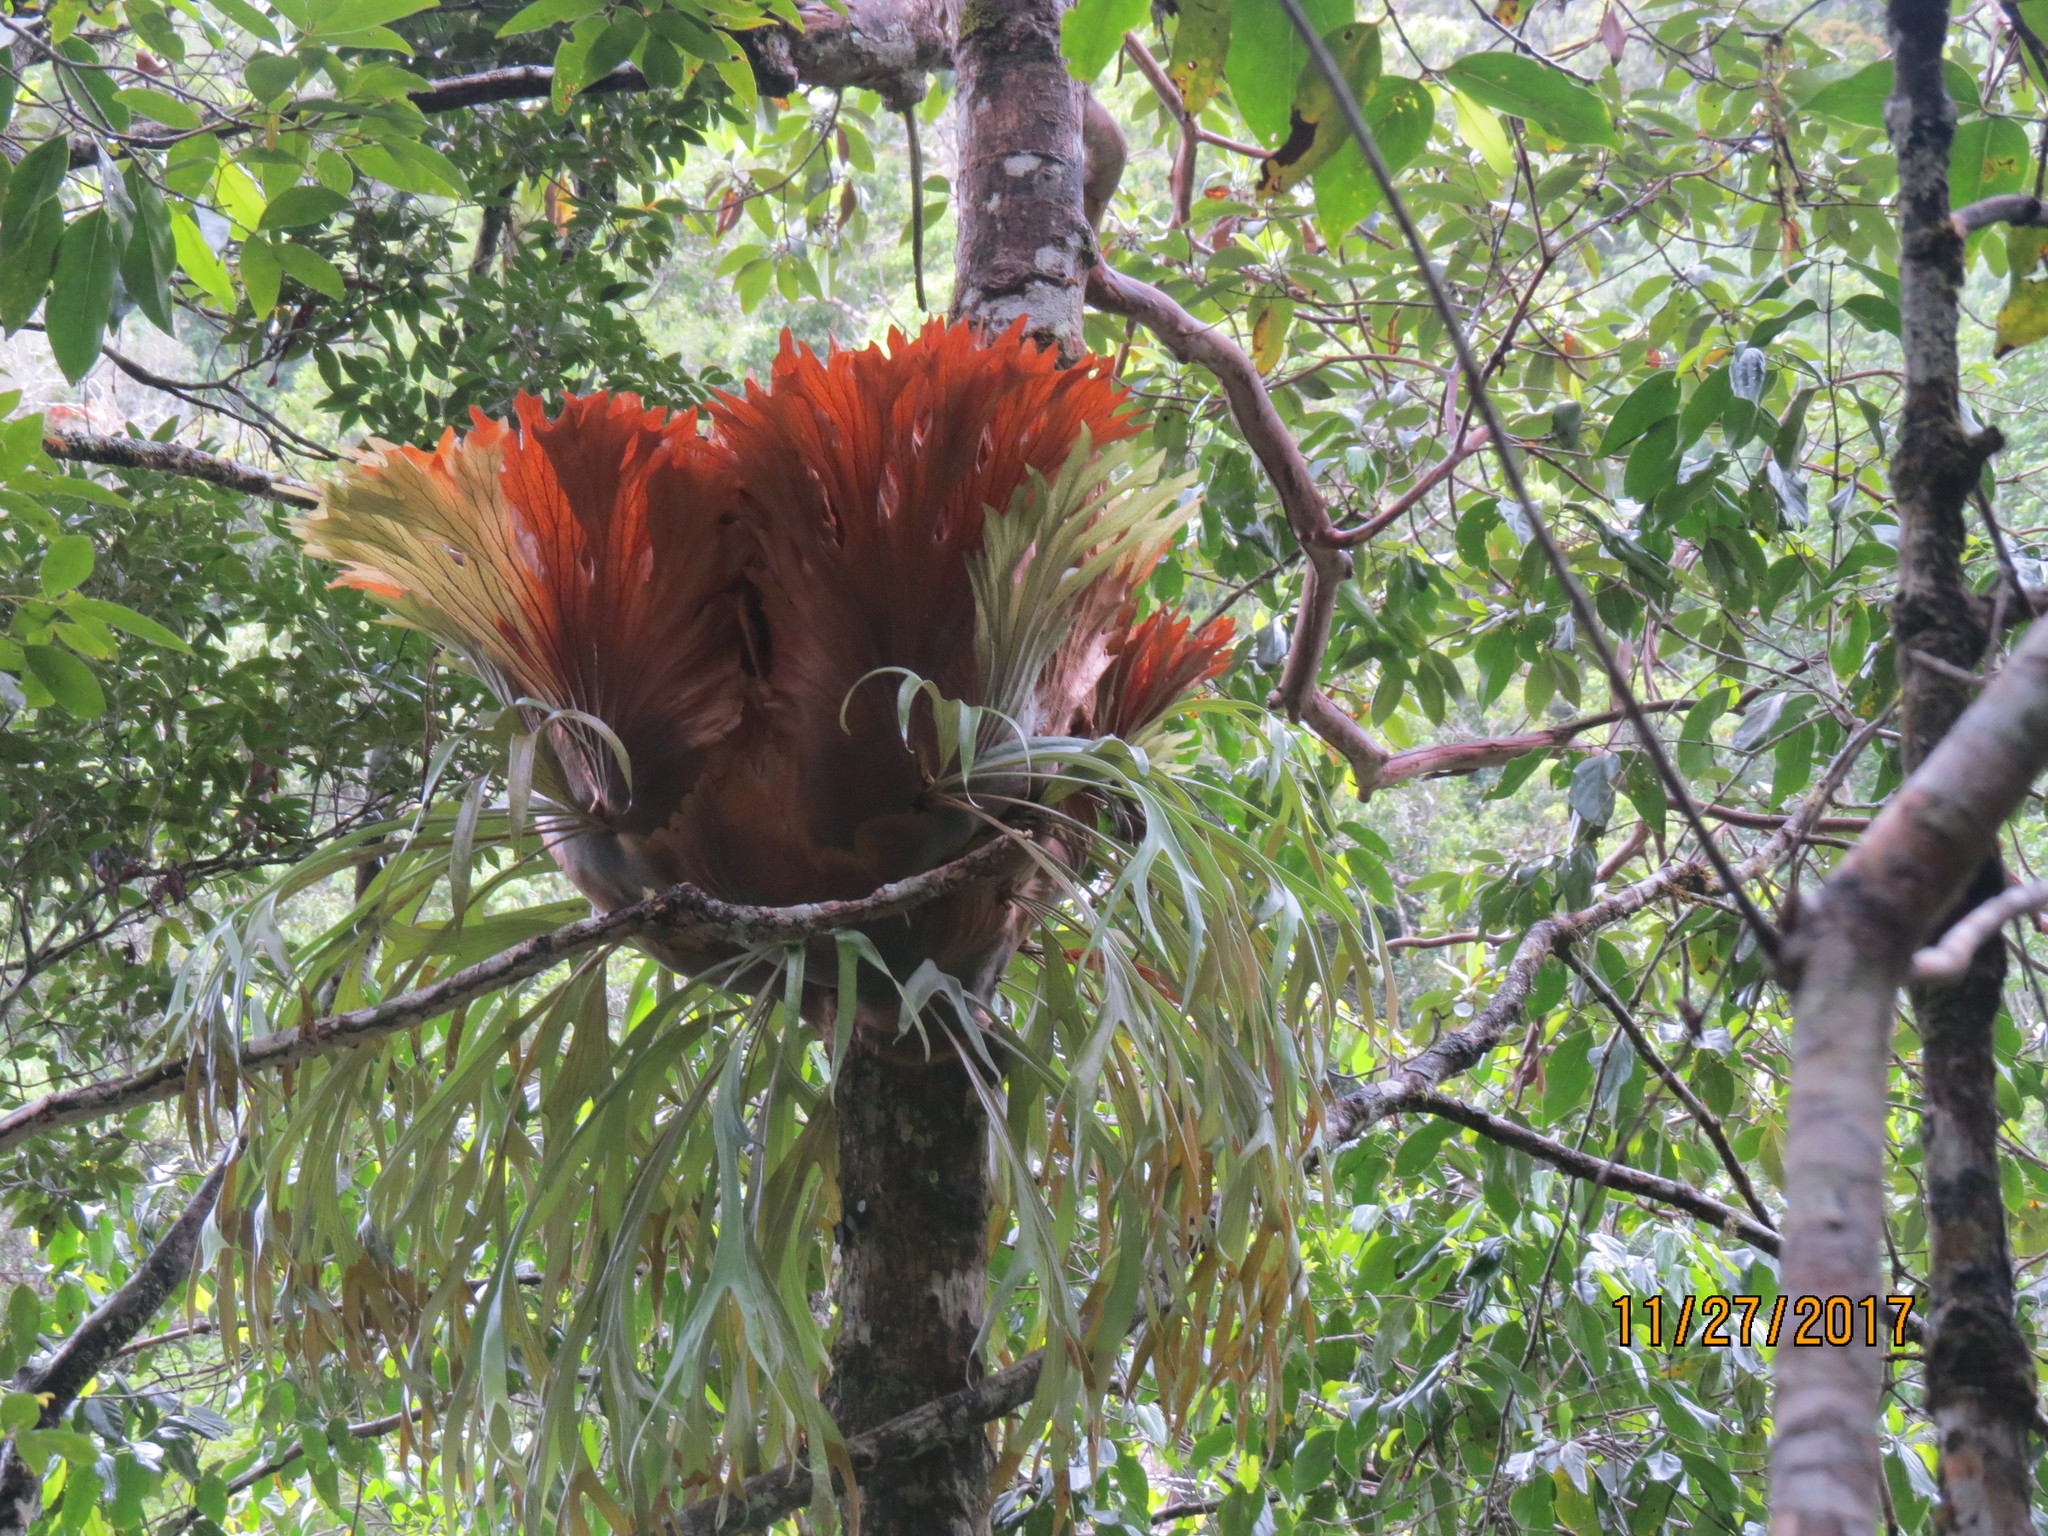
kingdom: Plantae
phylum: Tracheophyta
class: Polypodiopsida
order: Polypodiales
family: Polypodiaceae
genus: Platycerium
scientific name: Platycerium bifurcatum
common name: Elkhorn fern
